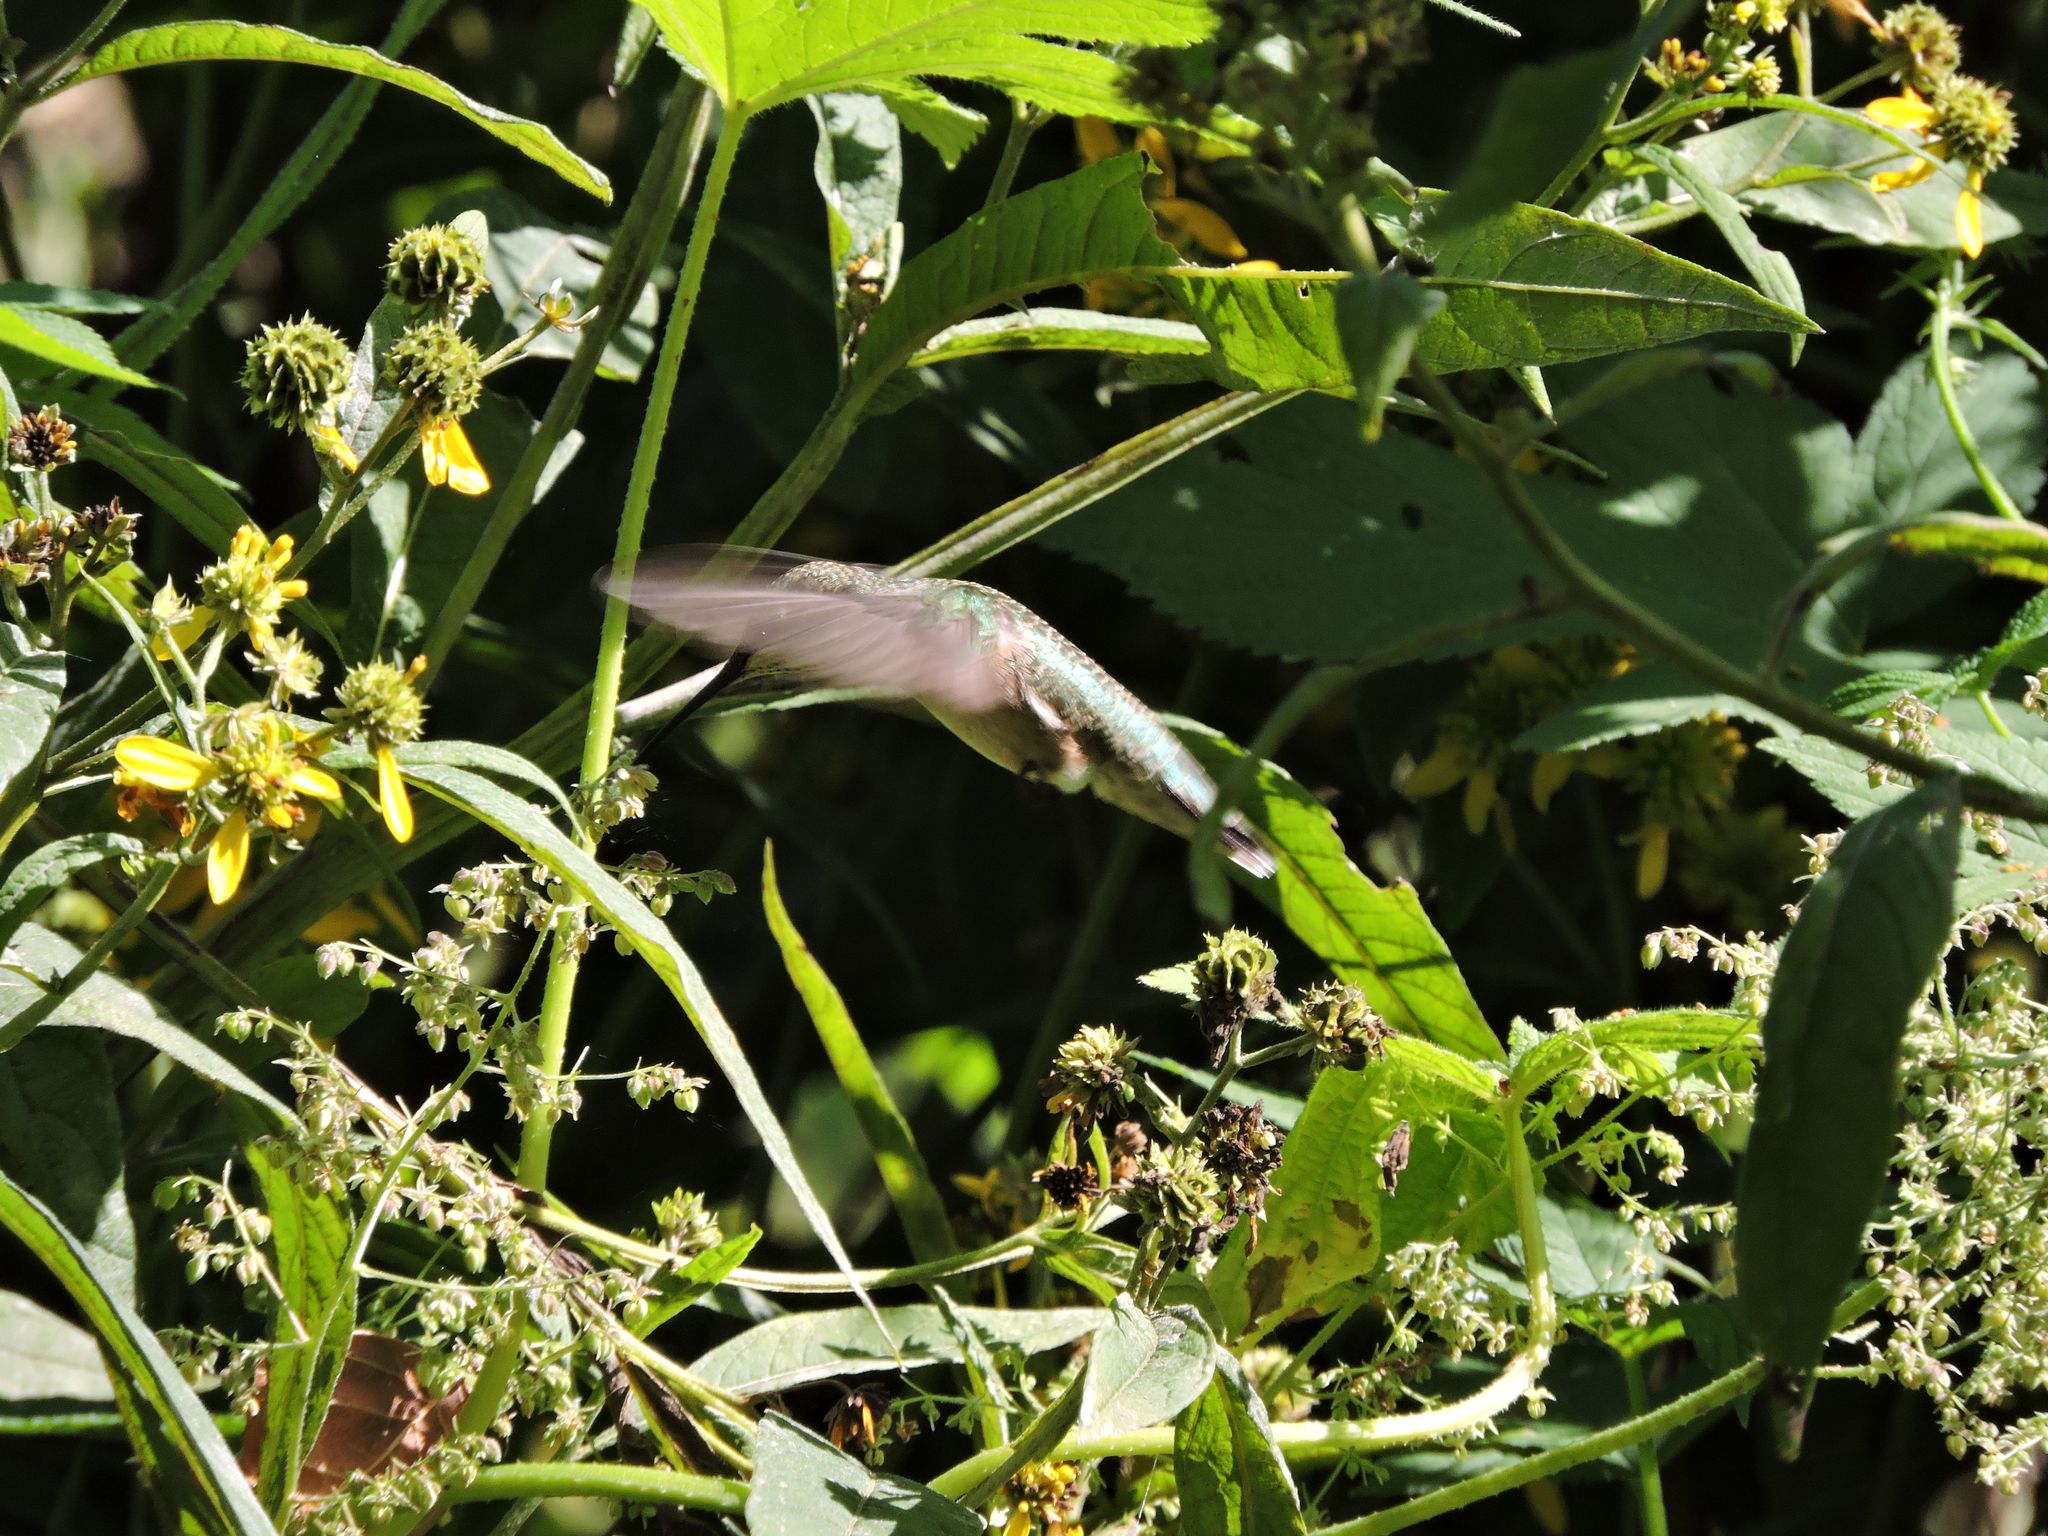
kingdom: Animalia
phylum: Chordata
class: Aves
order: Apodiformes
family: Trochilidae
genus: Archilochus
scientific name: Archilochus colubris
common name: Ruby-throated hummingbird
